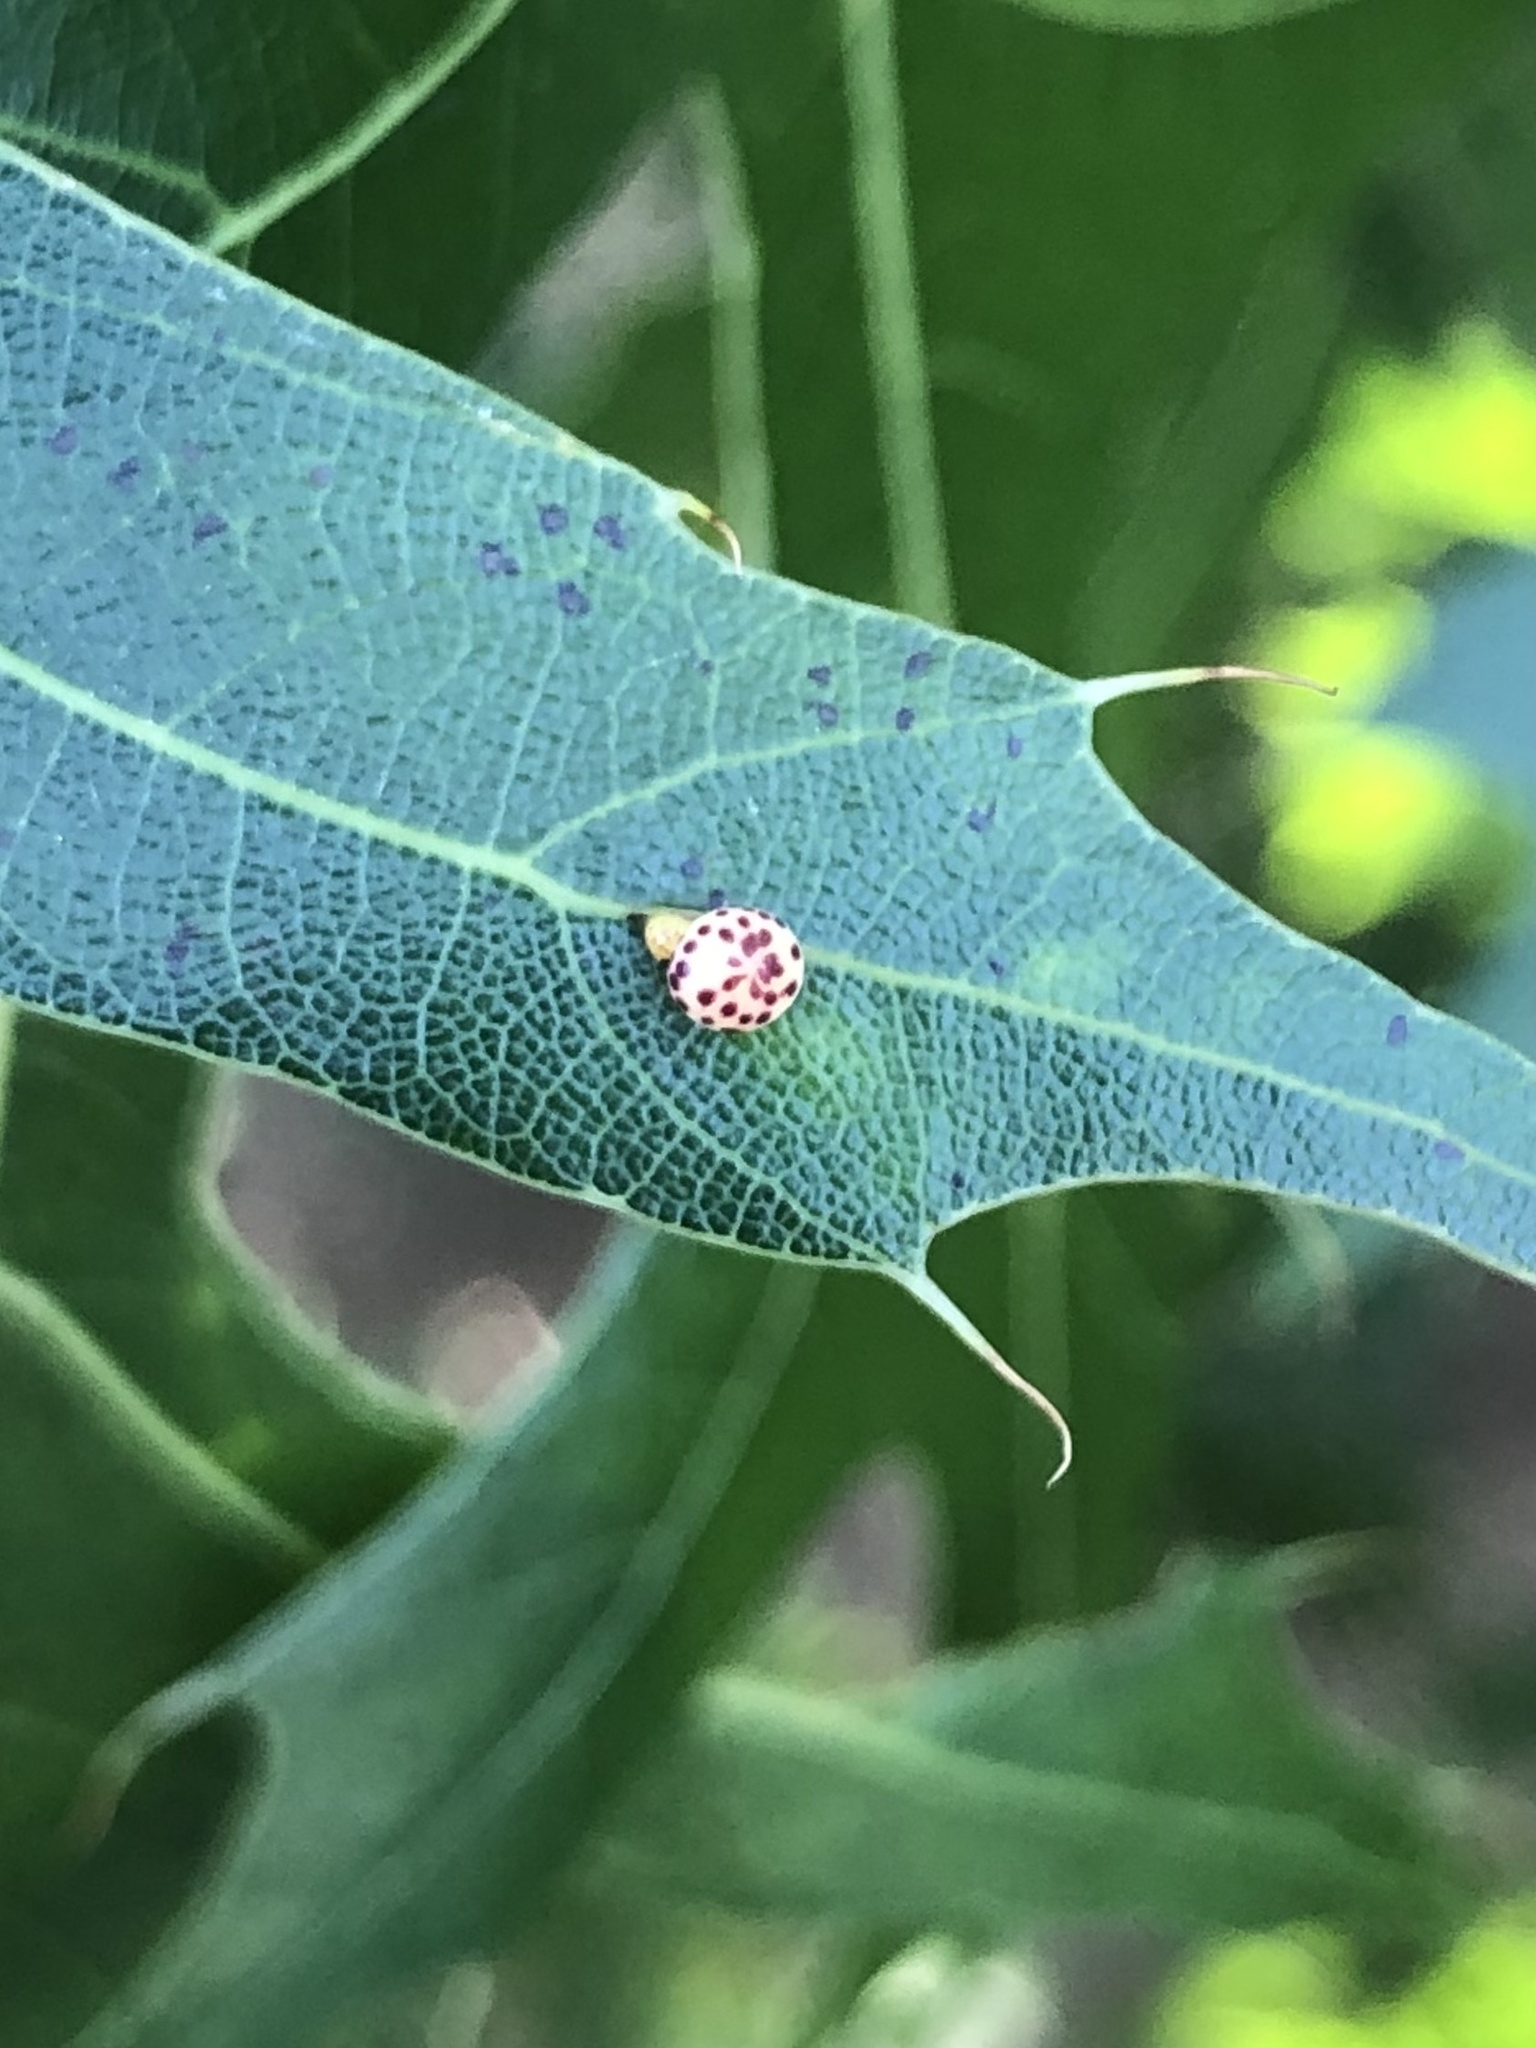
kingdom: Animalia
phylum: Arthropoda
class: Insecta
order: Hymenoptera
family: Cynipidae
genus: Zopheroteras
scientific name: Zopheroteras
